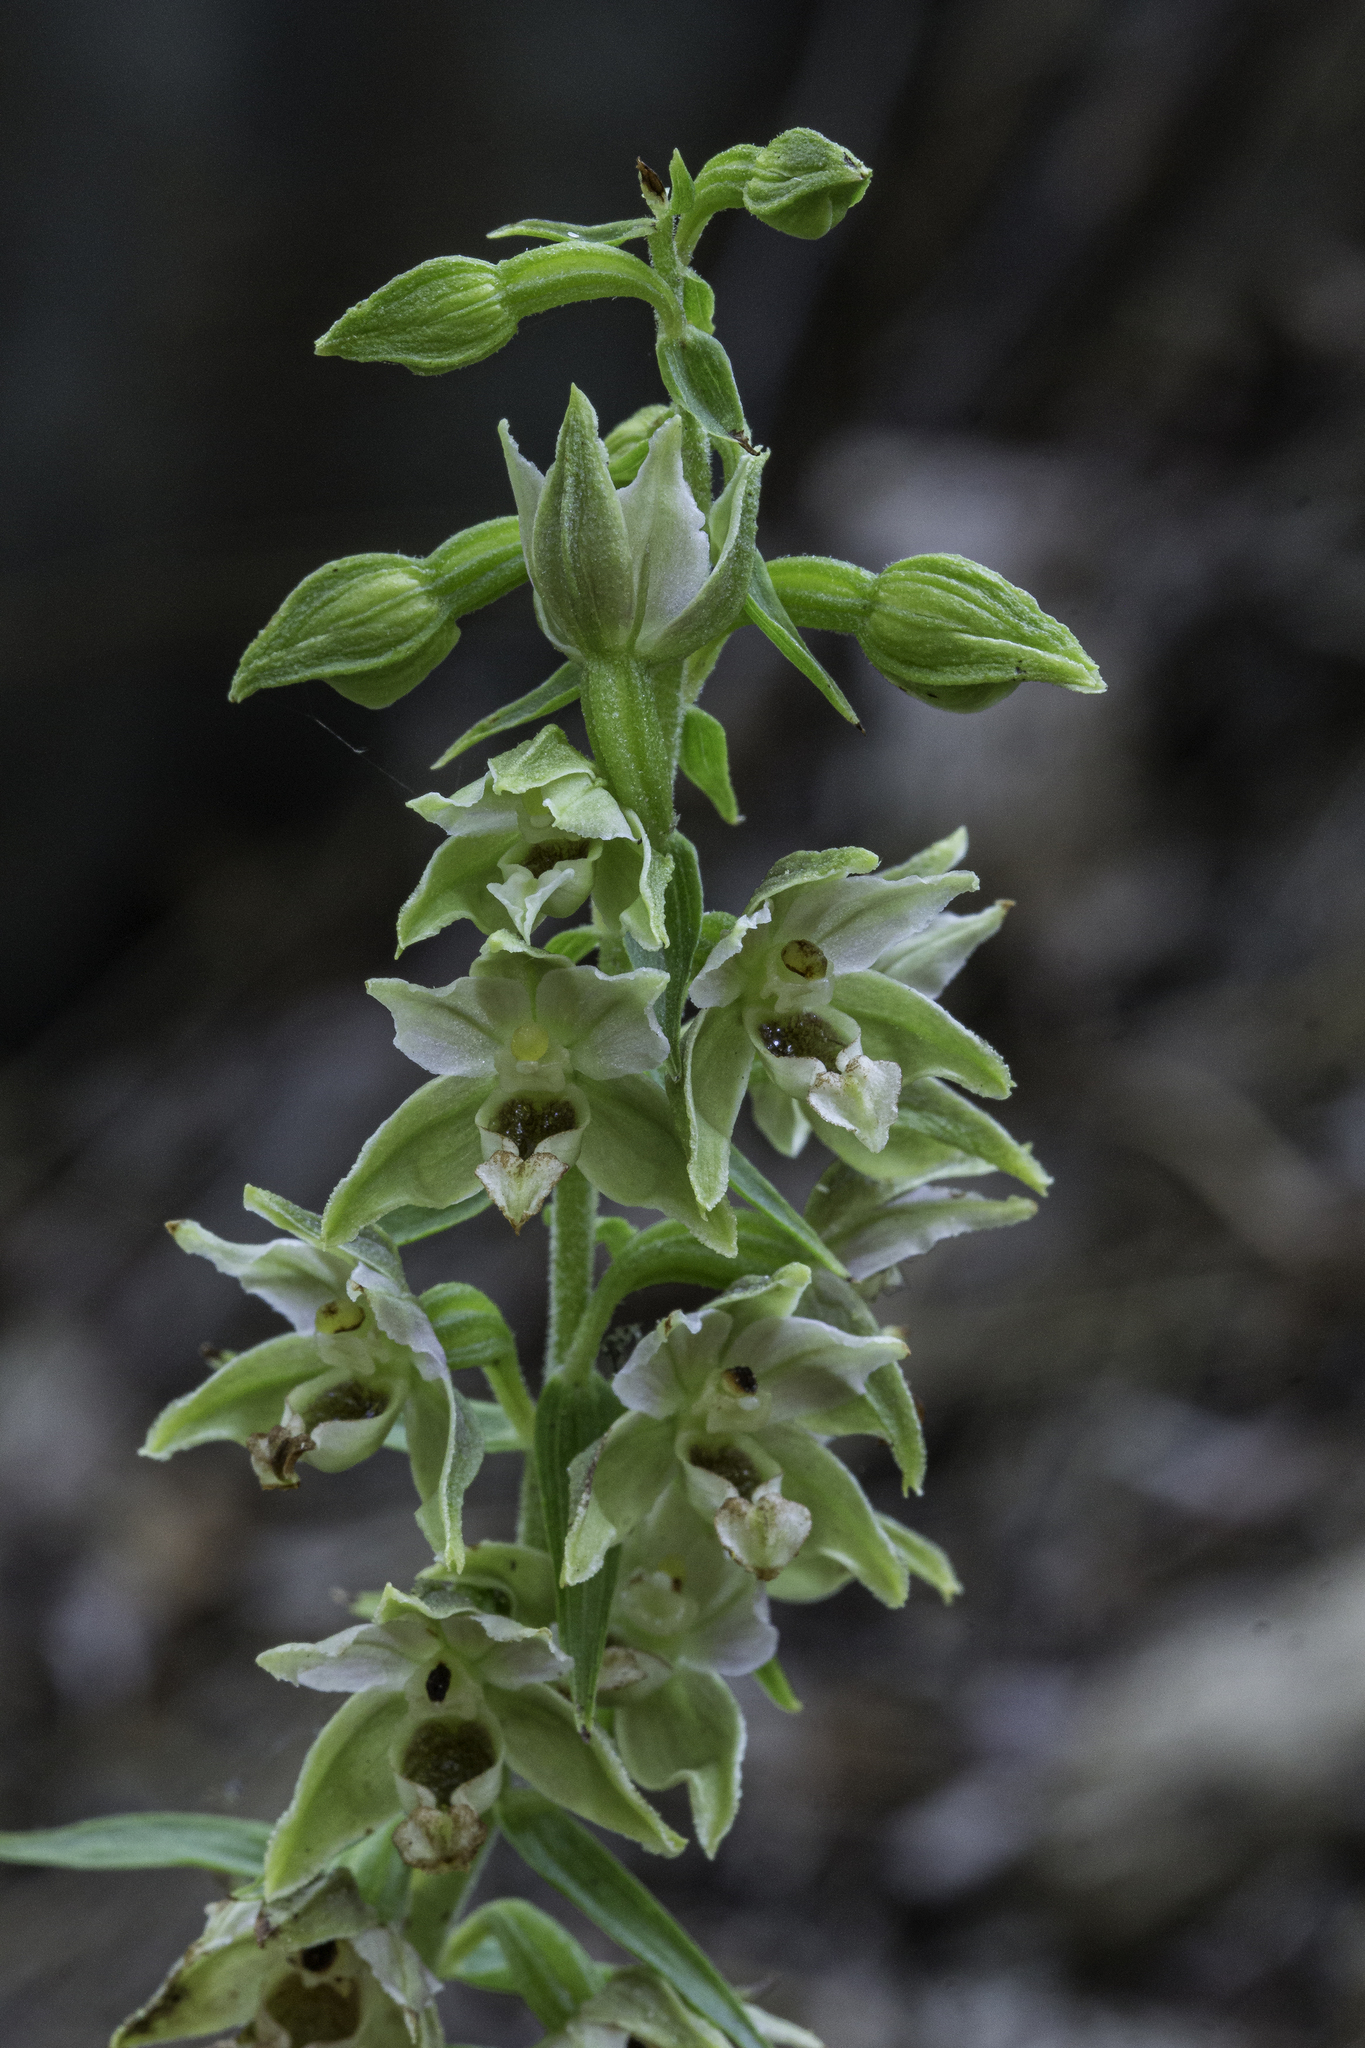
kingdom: Plantae
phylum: Tracheophyta
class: Liliopsida
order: Asparagales
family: Orchidaceae
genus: Epipactis
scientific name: Epipactis helleborine
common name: Broad-leaved helleborine
